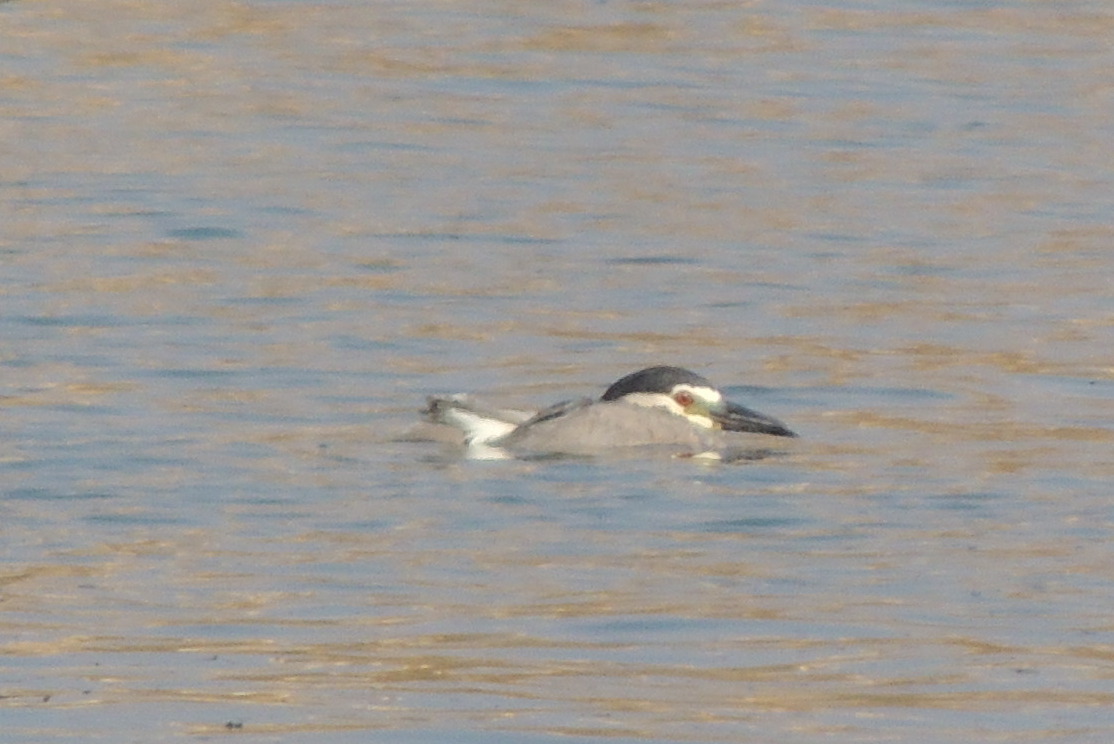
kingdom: Animalia
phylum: Chordata
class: Aves
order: Pelecaniformes
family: Ardeidae
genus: Nycticorax
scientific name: Nycticorax nycticorax
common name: Black-crowned night heron
